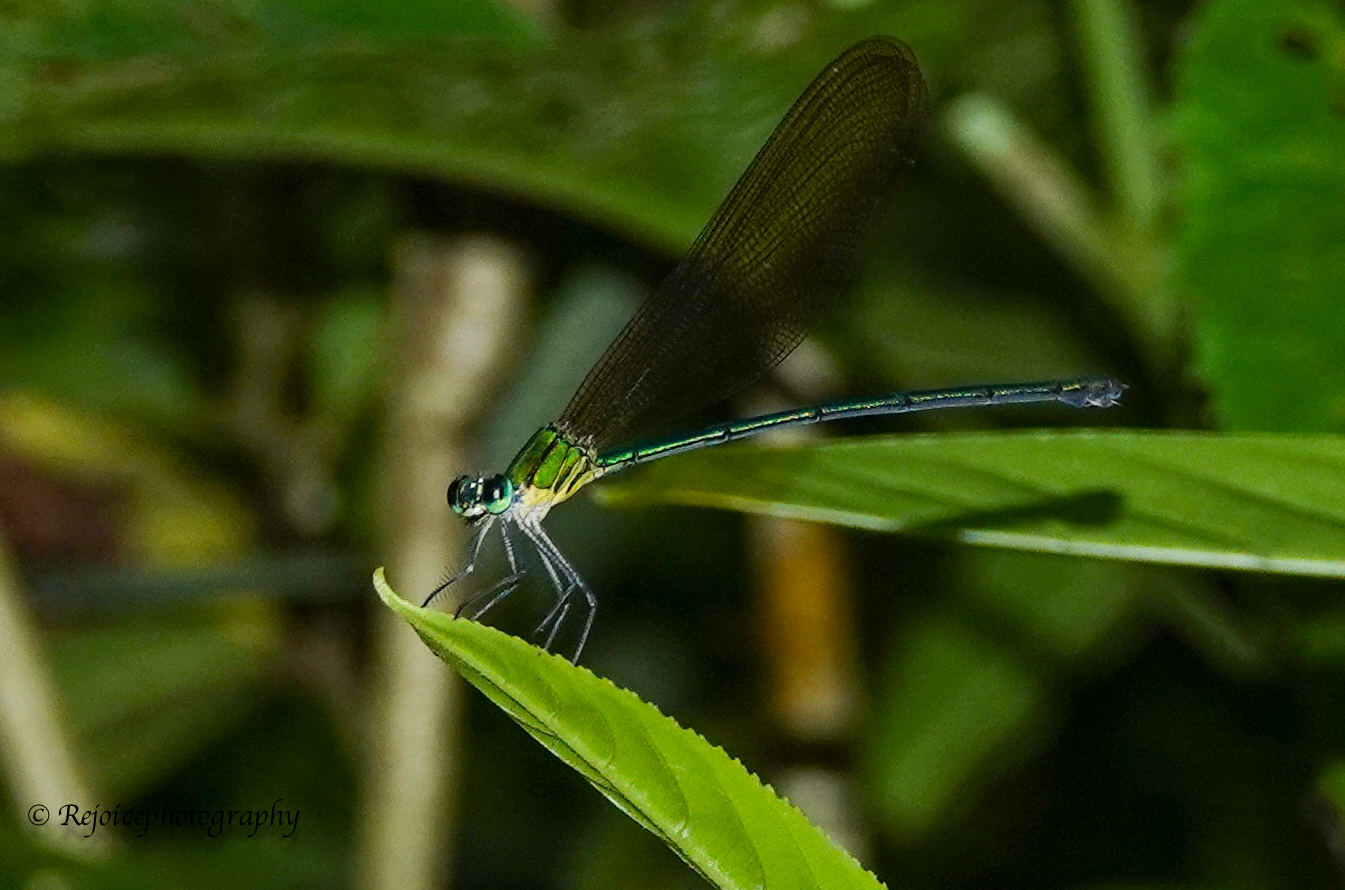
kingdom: Animalia
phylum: Arthropoda
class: Insecta
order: Odonata
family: Calopterygidae
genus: Vestalis
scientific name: Vestalis gracilis
